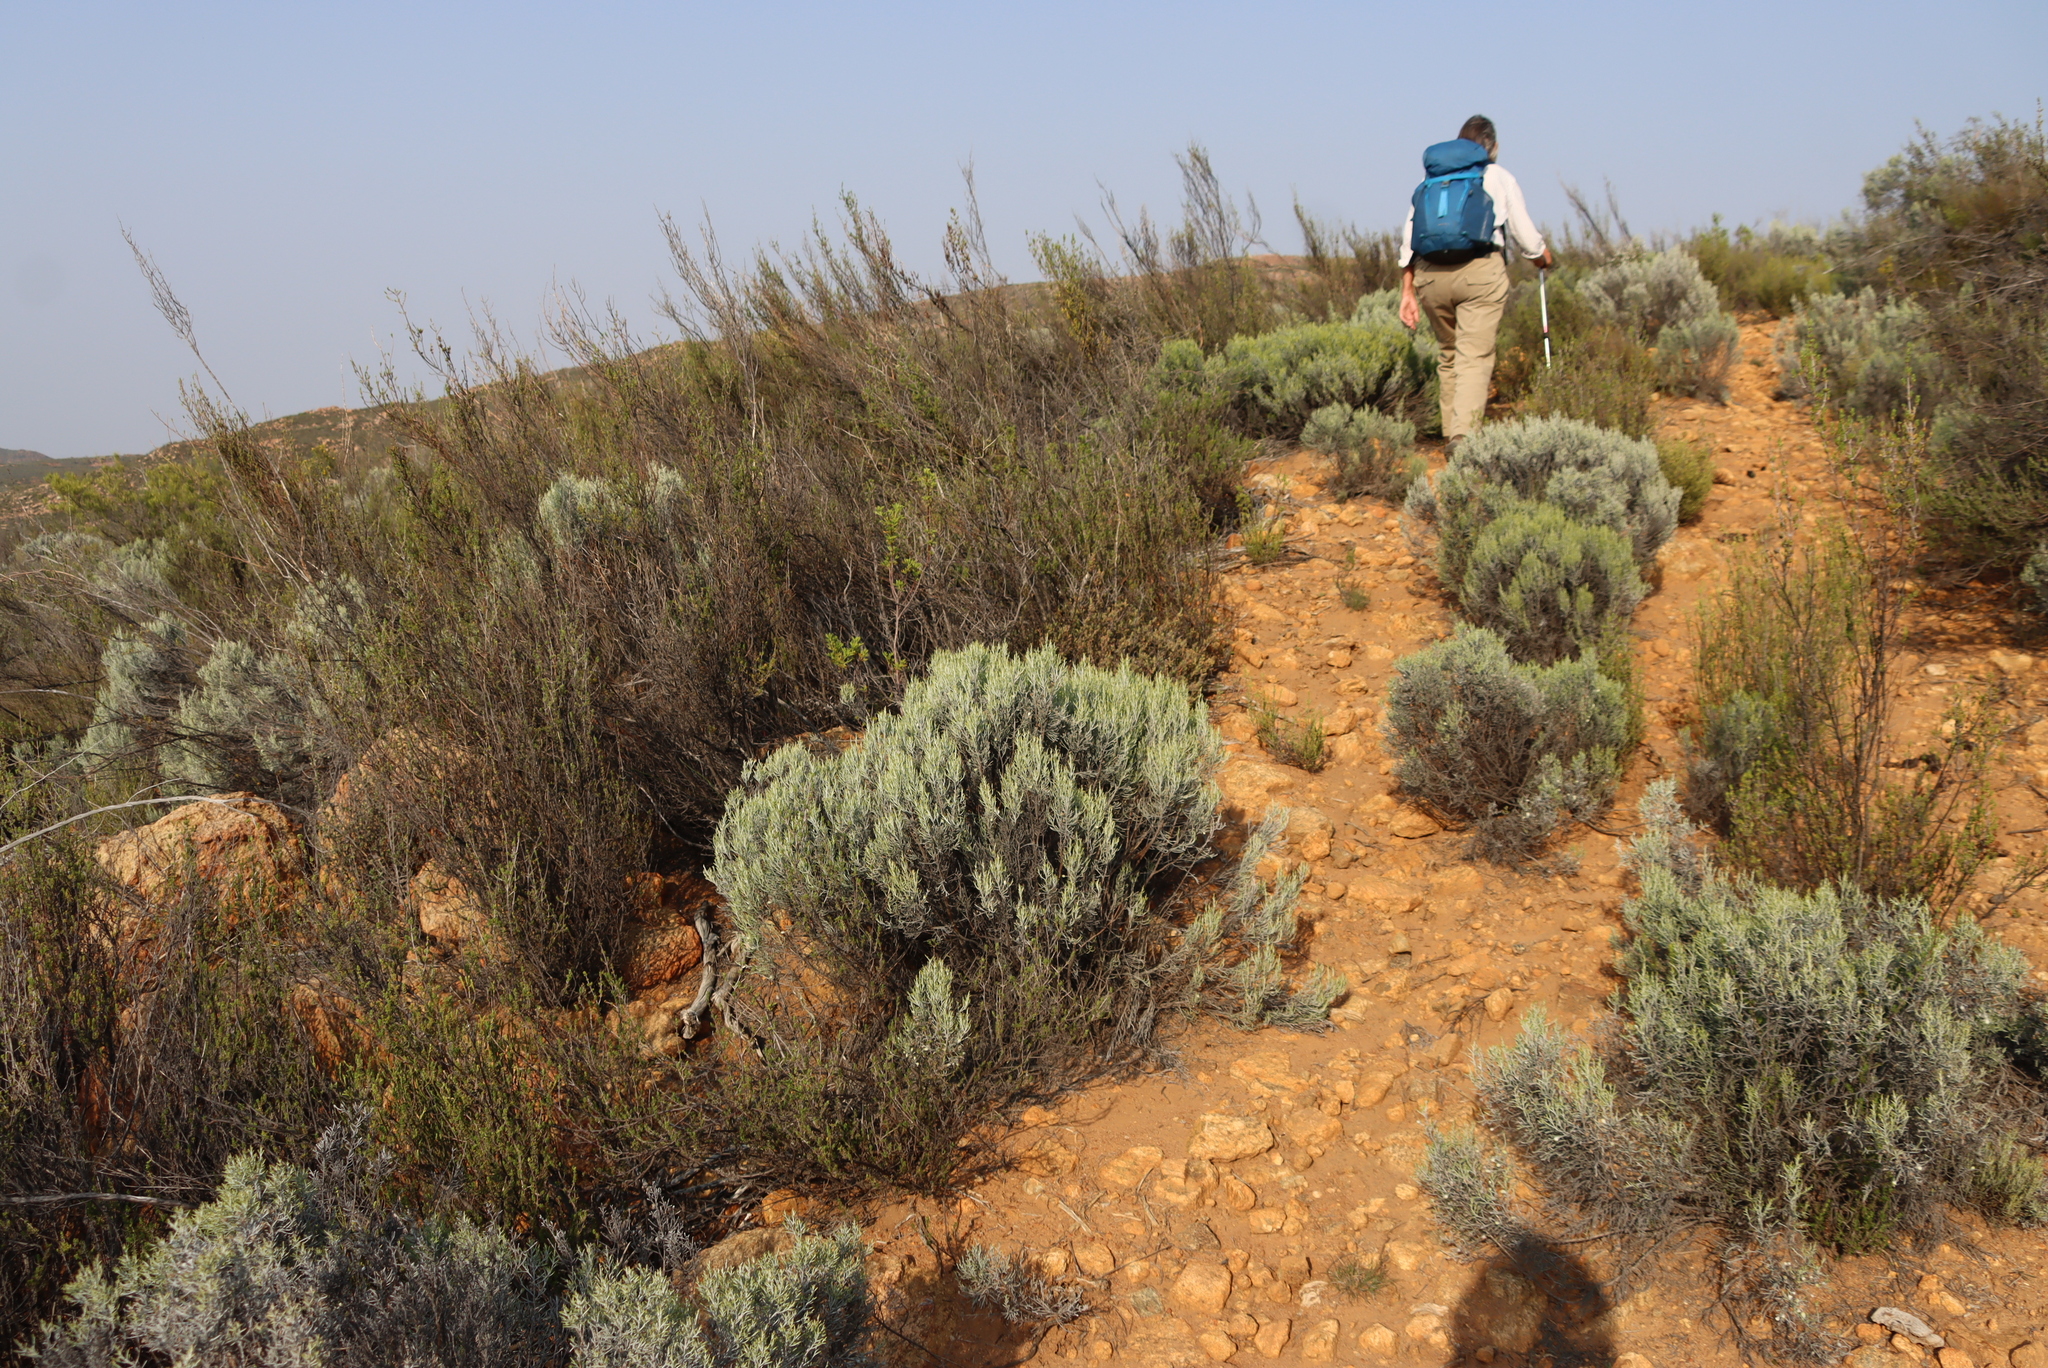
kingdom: Plantae
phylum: Tracheophyta
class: Magnoliopsida
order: Asterales
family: Asteraceae
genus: Dicerothamnus
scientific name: Dicerothamnus rhinocerotis
